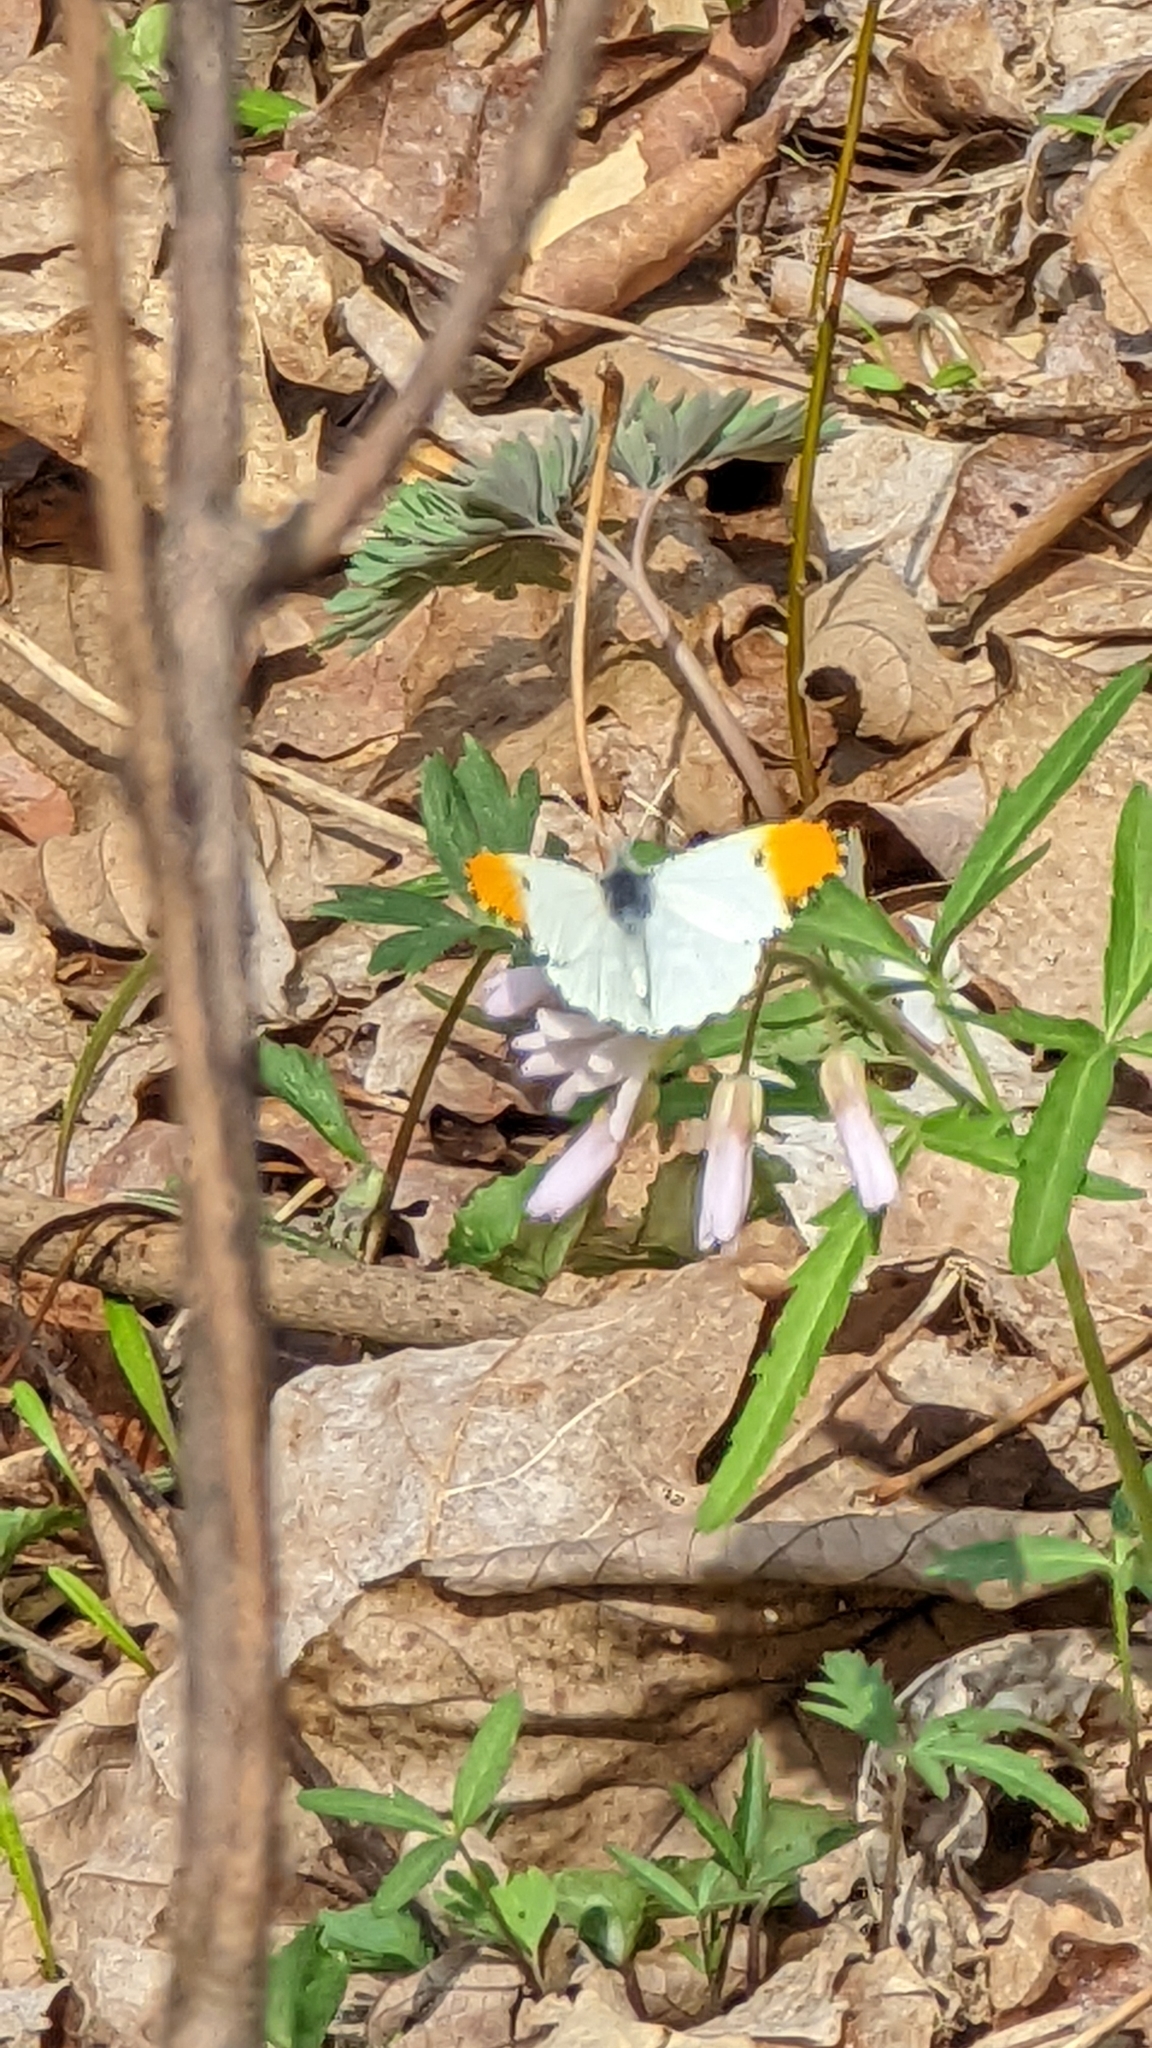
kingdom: Animalia
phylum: Arthropoda
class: Insecta
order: Lepidoptera
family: Pieridae
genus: Anthocharis
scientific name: Anthocharis midea
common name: Falcate orangetip
